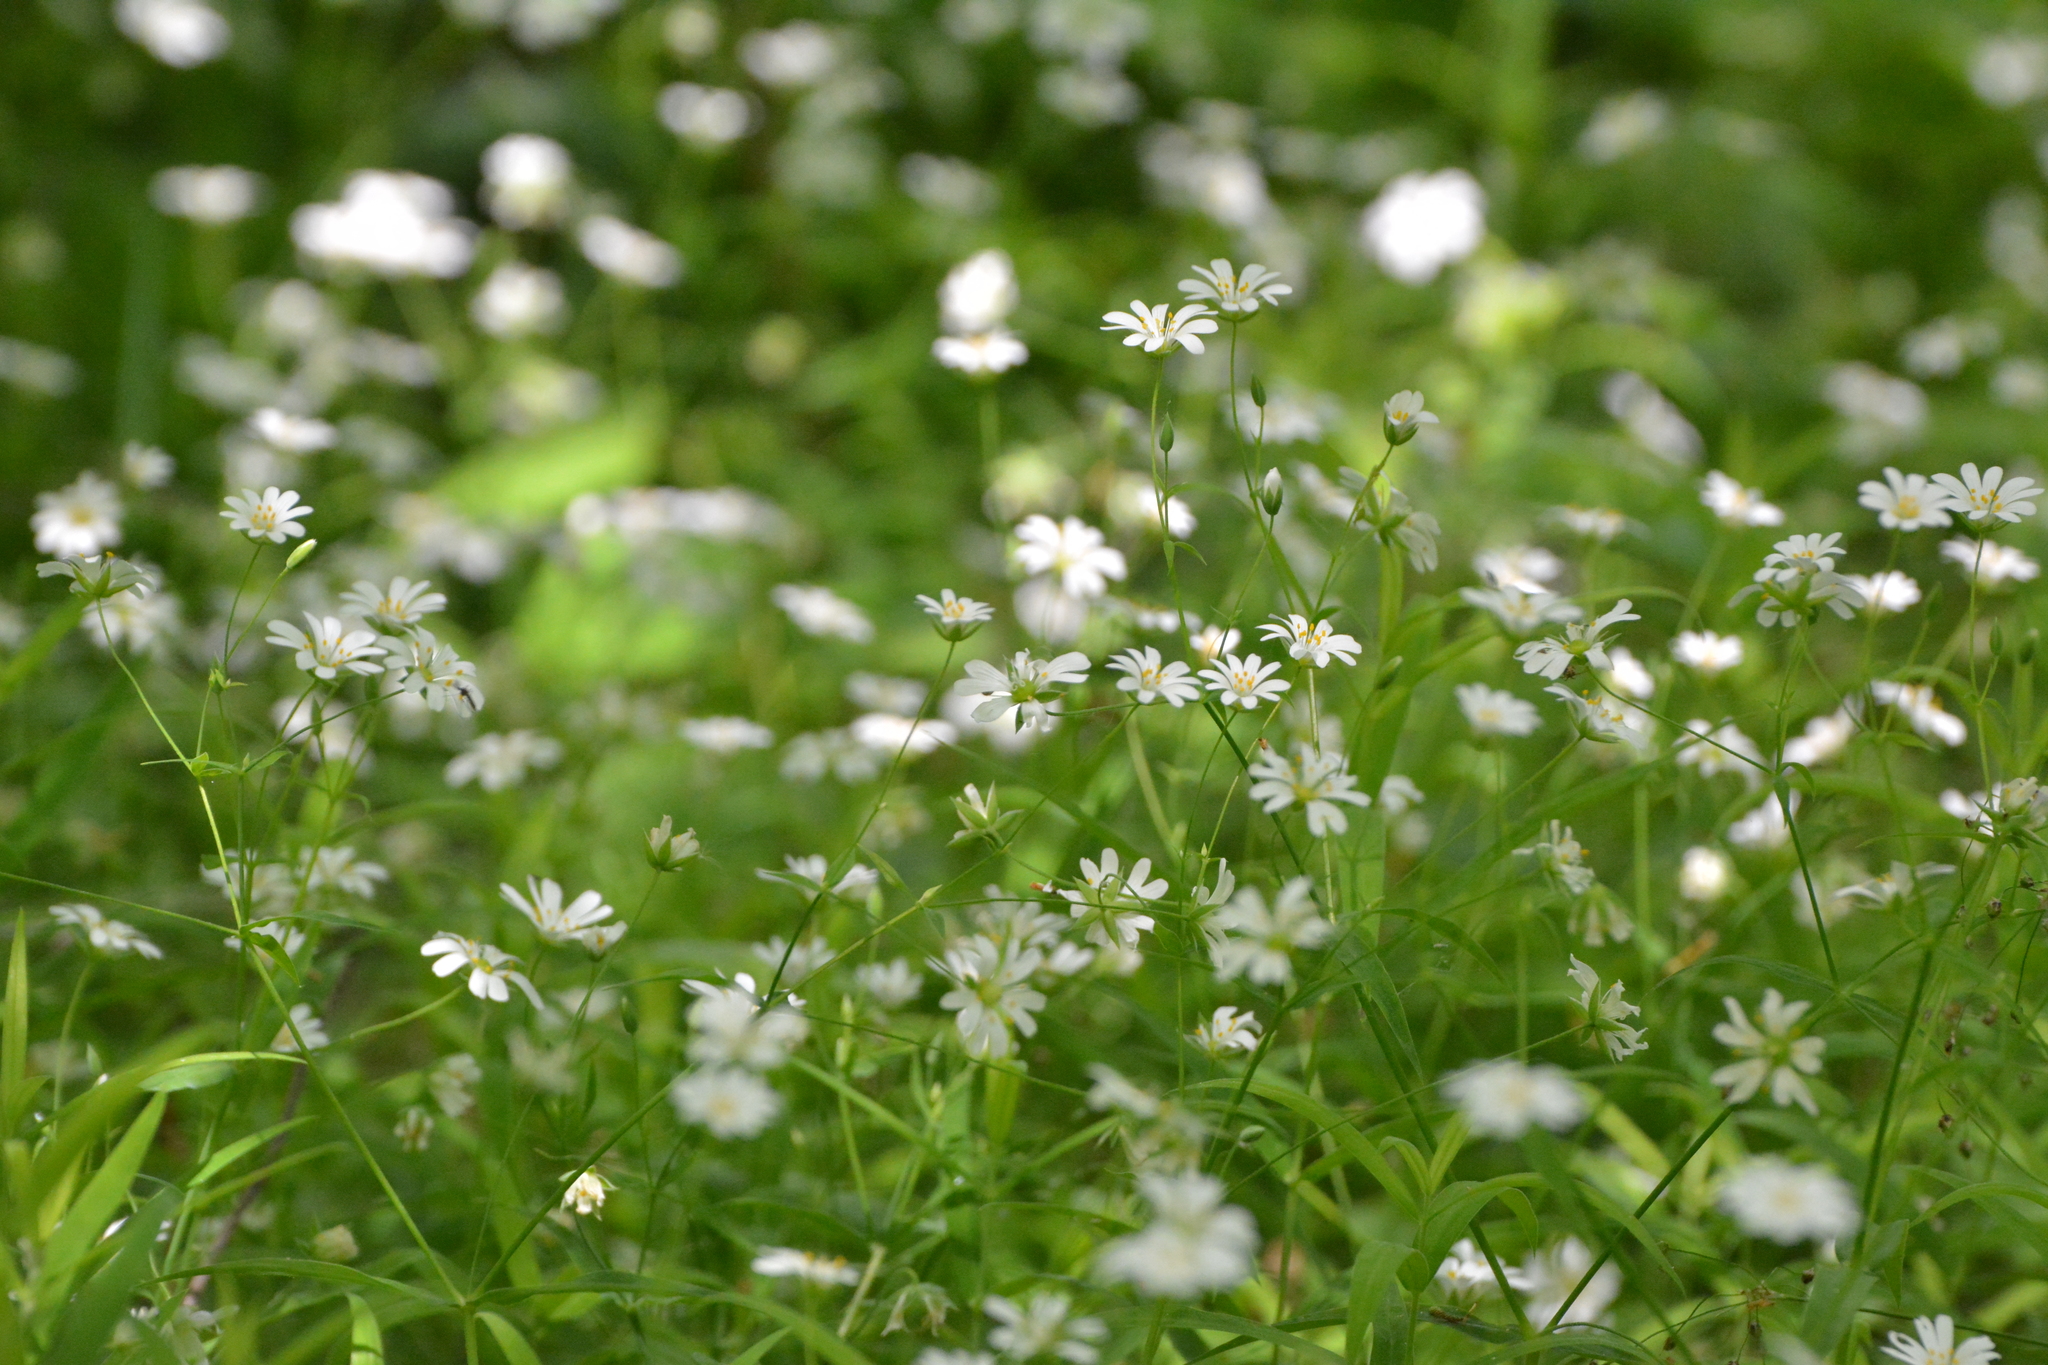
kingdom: Plantae
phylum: Tracheophyta
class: Magnoliopsida
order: Caryophyllales
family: Caryophyllaceae
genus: Rabelera
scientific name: Rabelera holostea
